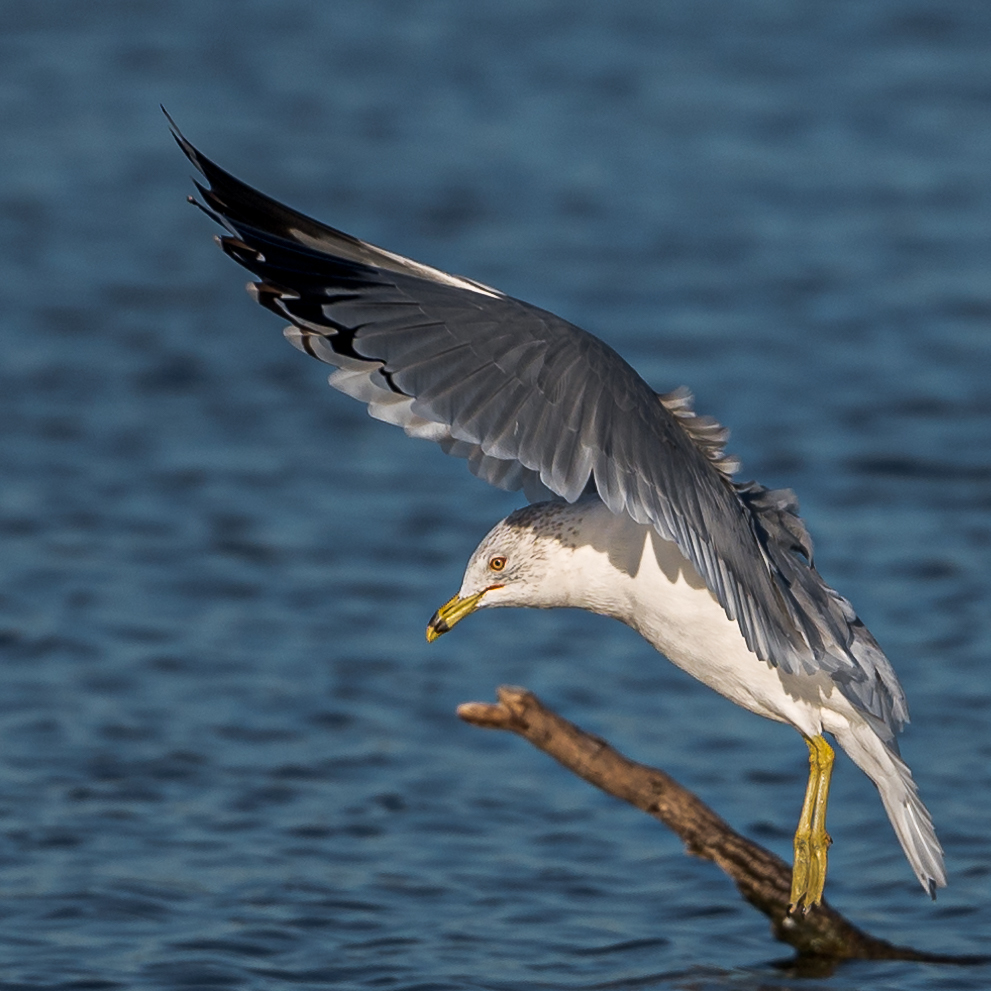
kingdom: Animalia
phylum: Chordata
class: Aves
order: Charadriiformes
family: Laridae
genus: Larus
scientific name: Larus delawarensis
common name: Ring-billed gull
